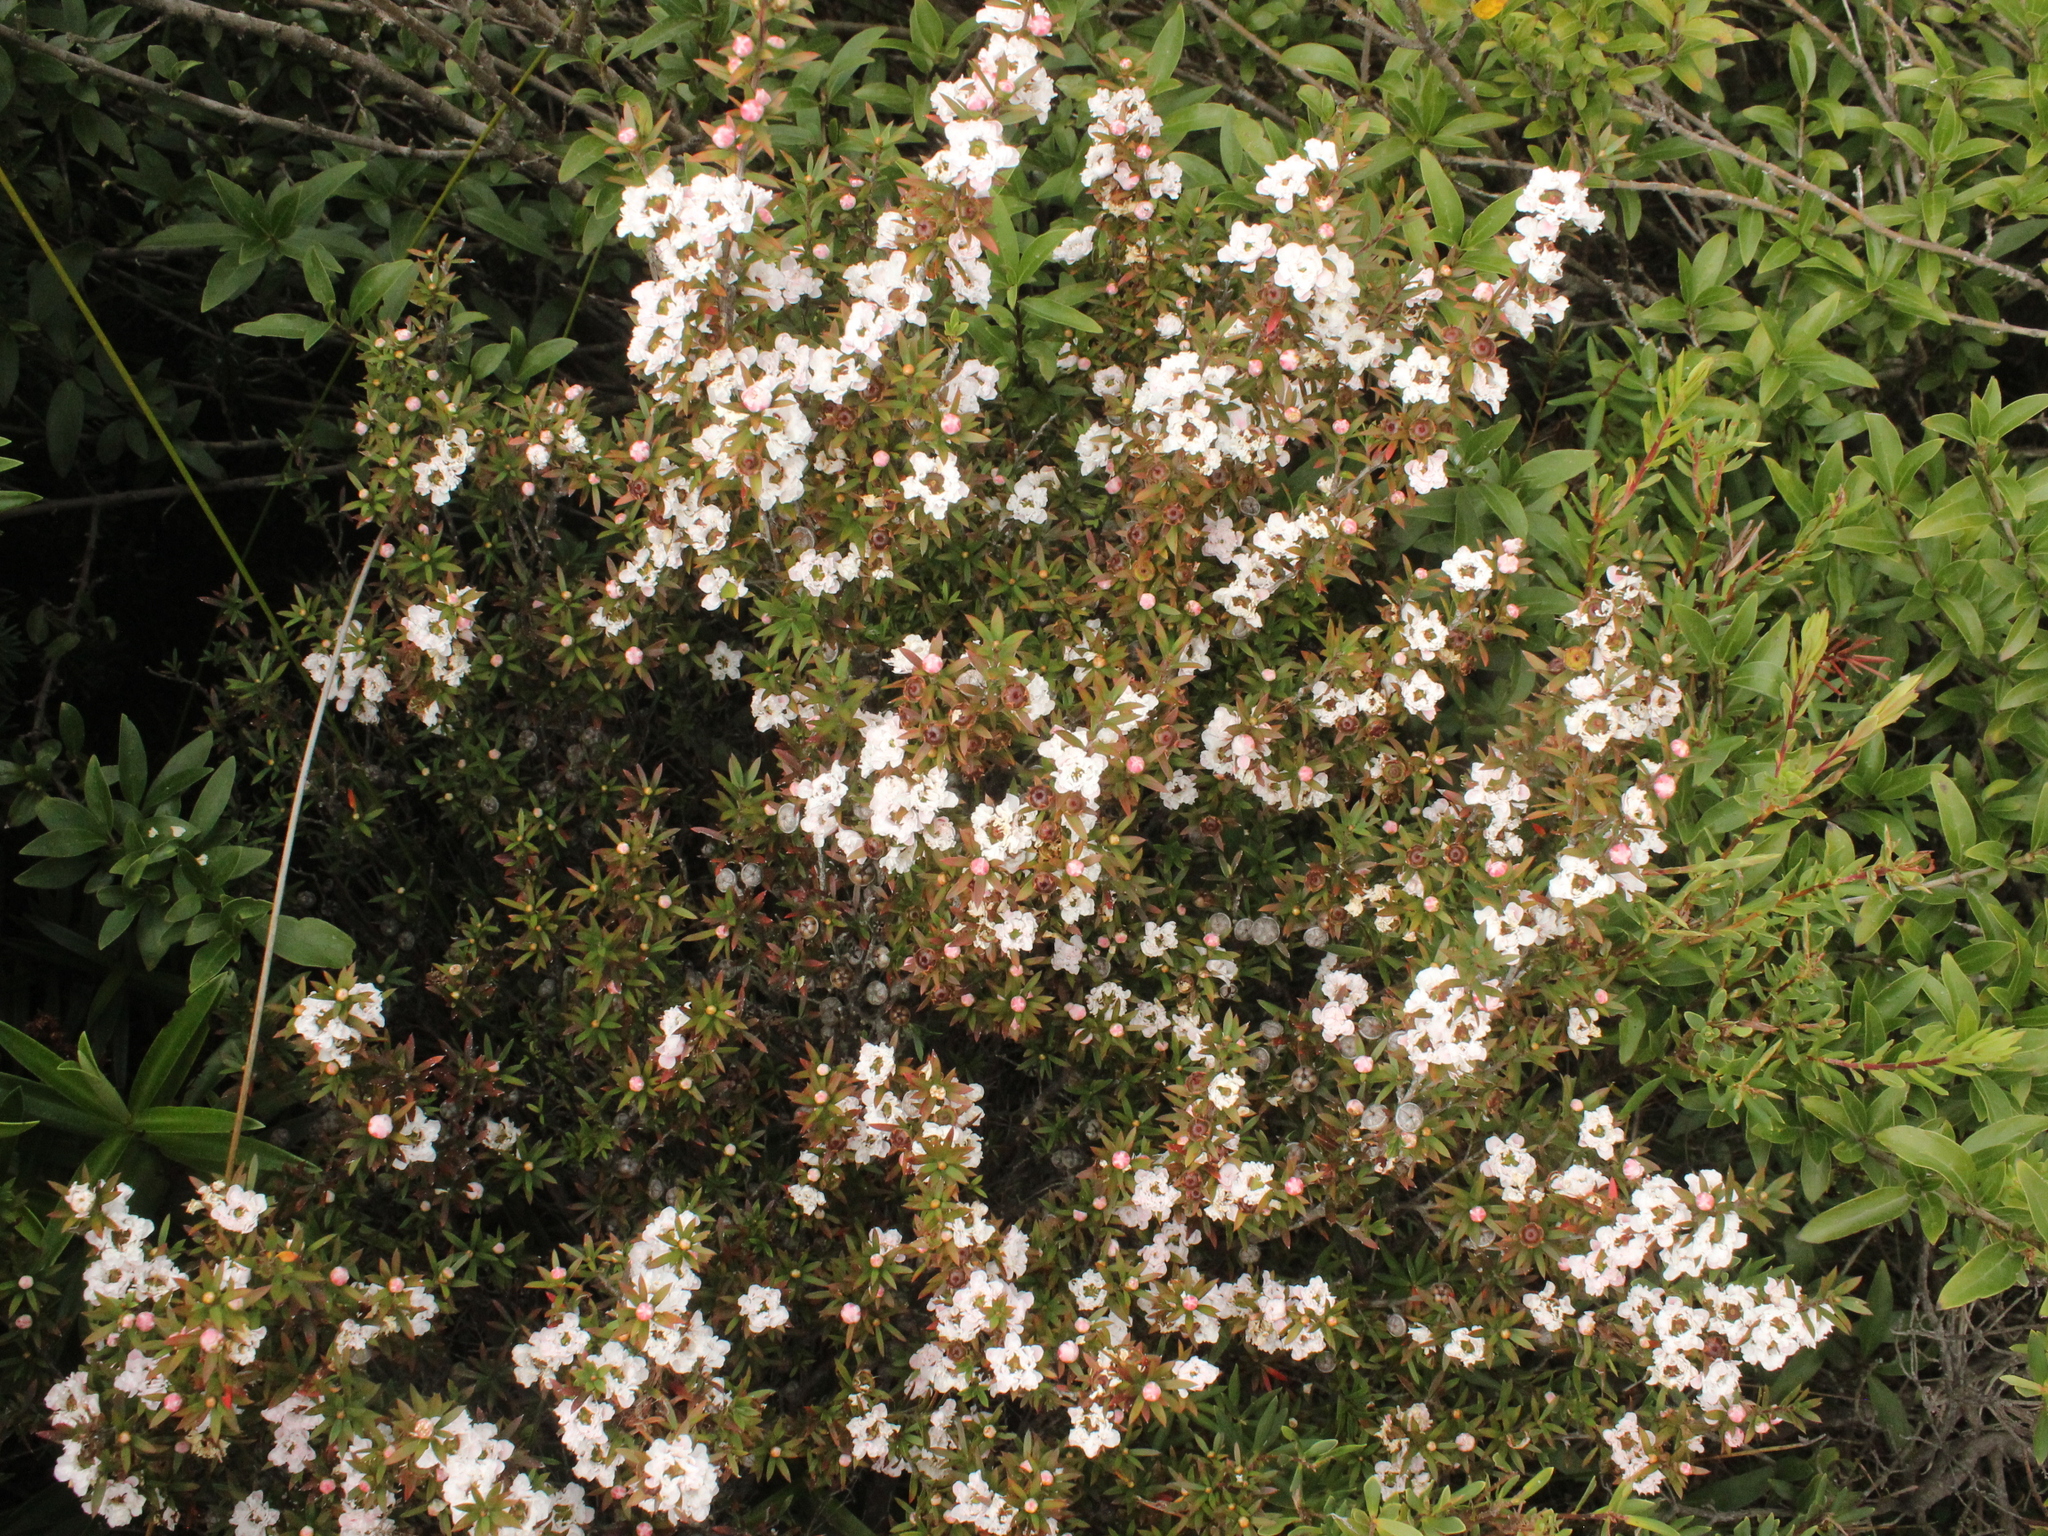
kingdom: Plantae
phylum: Tracheophyta
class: Magnoliopsida
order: Myrtales
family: Myrtaceae
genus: Leptospermum
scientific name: Leptospermum scoparium
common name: Broom tea-tree
